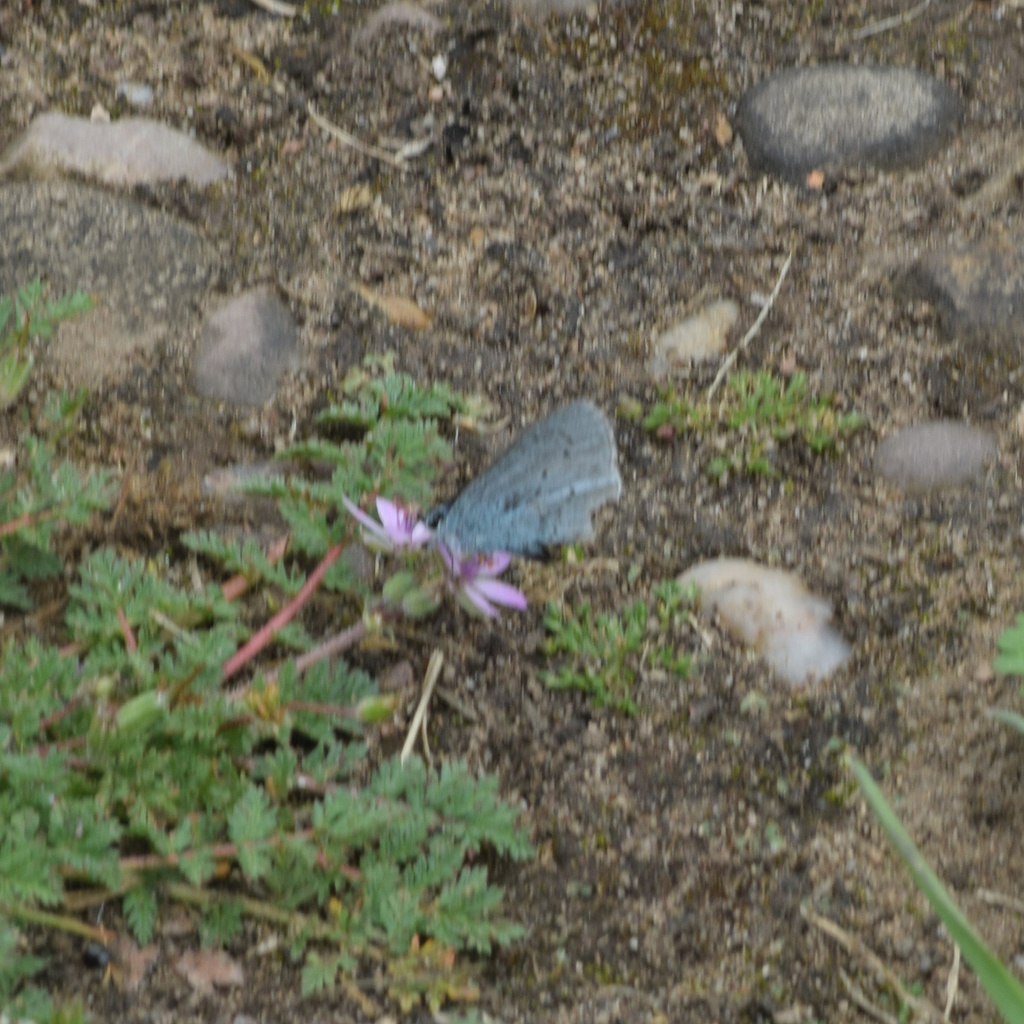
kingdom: Animalia
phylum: Arthropoda
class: Insecta
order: Lepidoptera
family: Lycaenidae
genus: Celastrina
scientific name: Celastrina argiolus
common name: Holly blue
